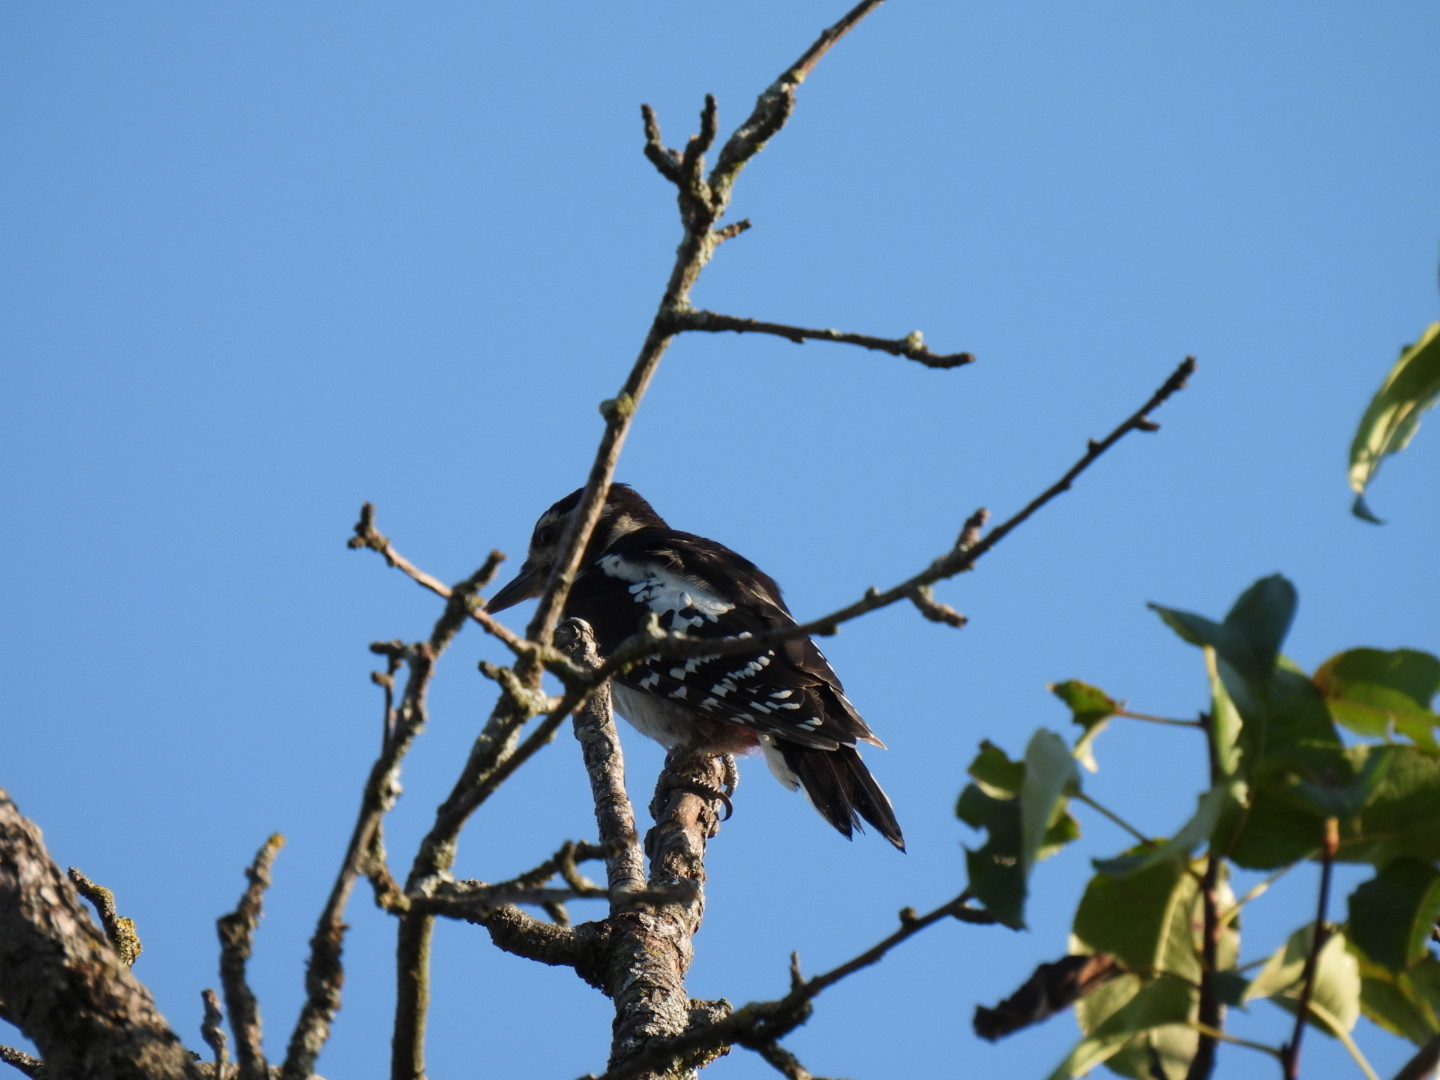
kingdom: Animalia
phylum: Chordata
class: Aves
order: Piciformes
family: Picidae
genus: Dendrocopos
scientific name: Dendrocopos major
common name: Great spotted woodpecker
